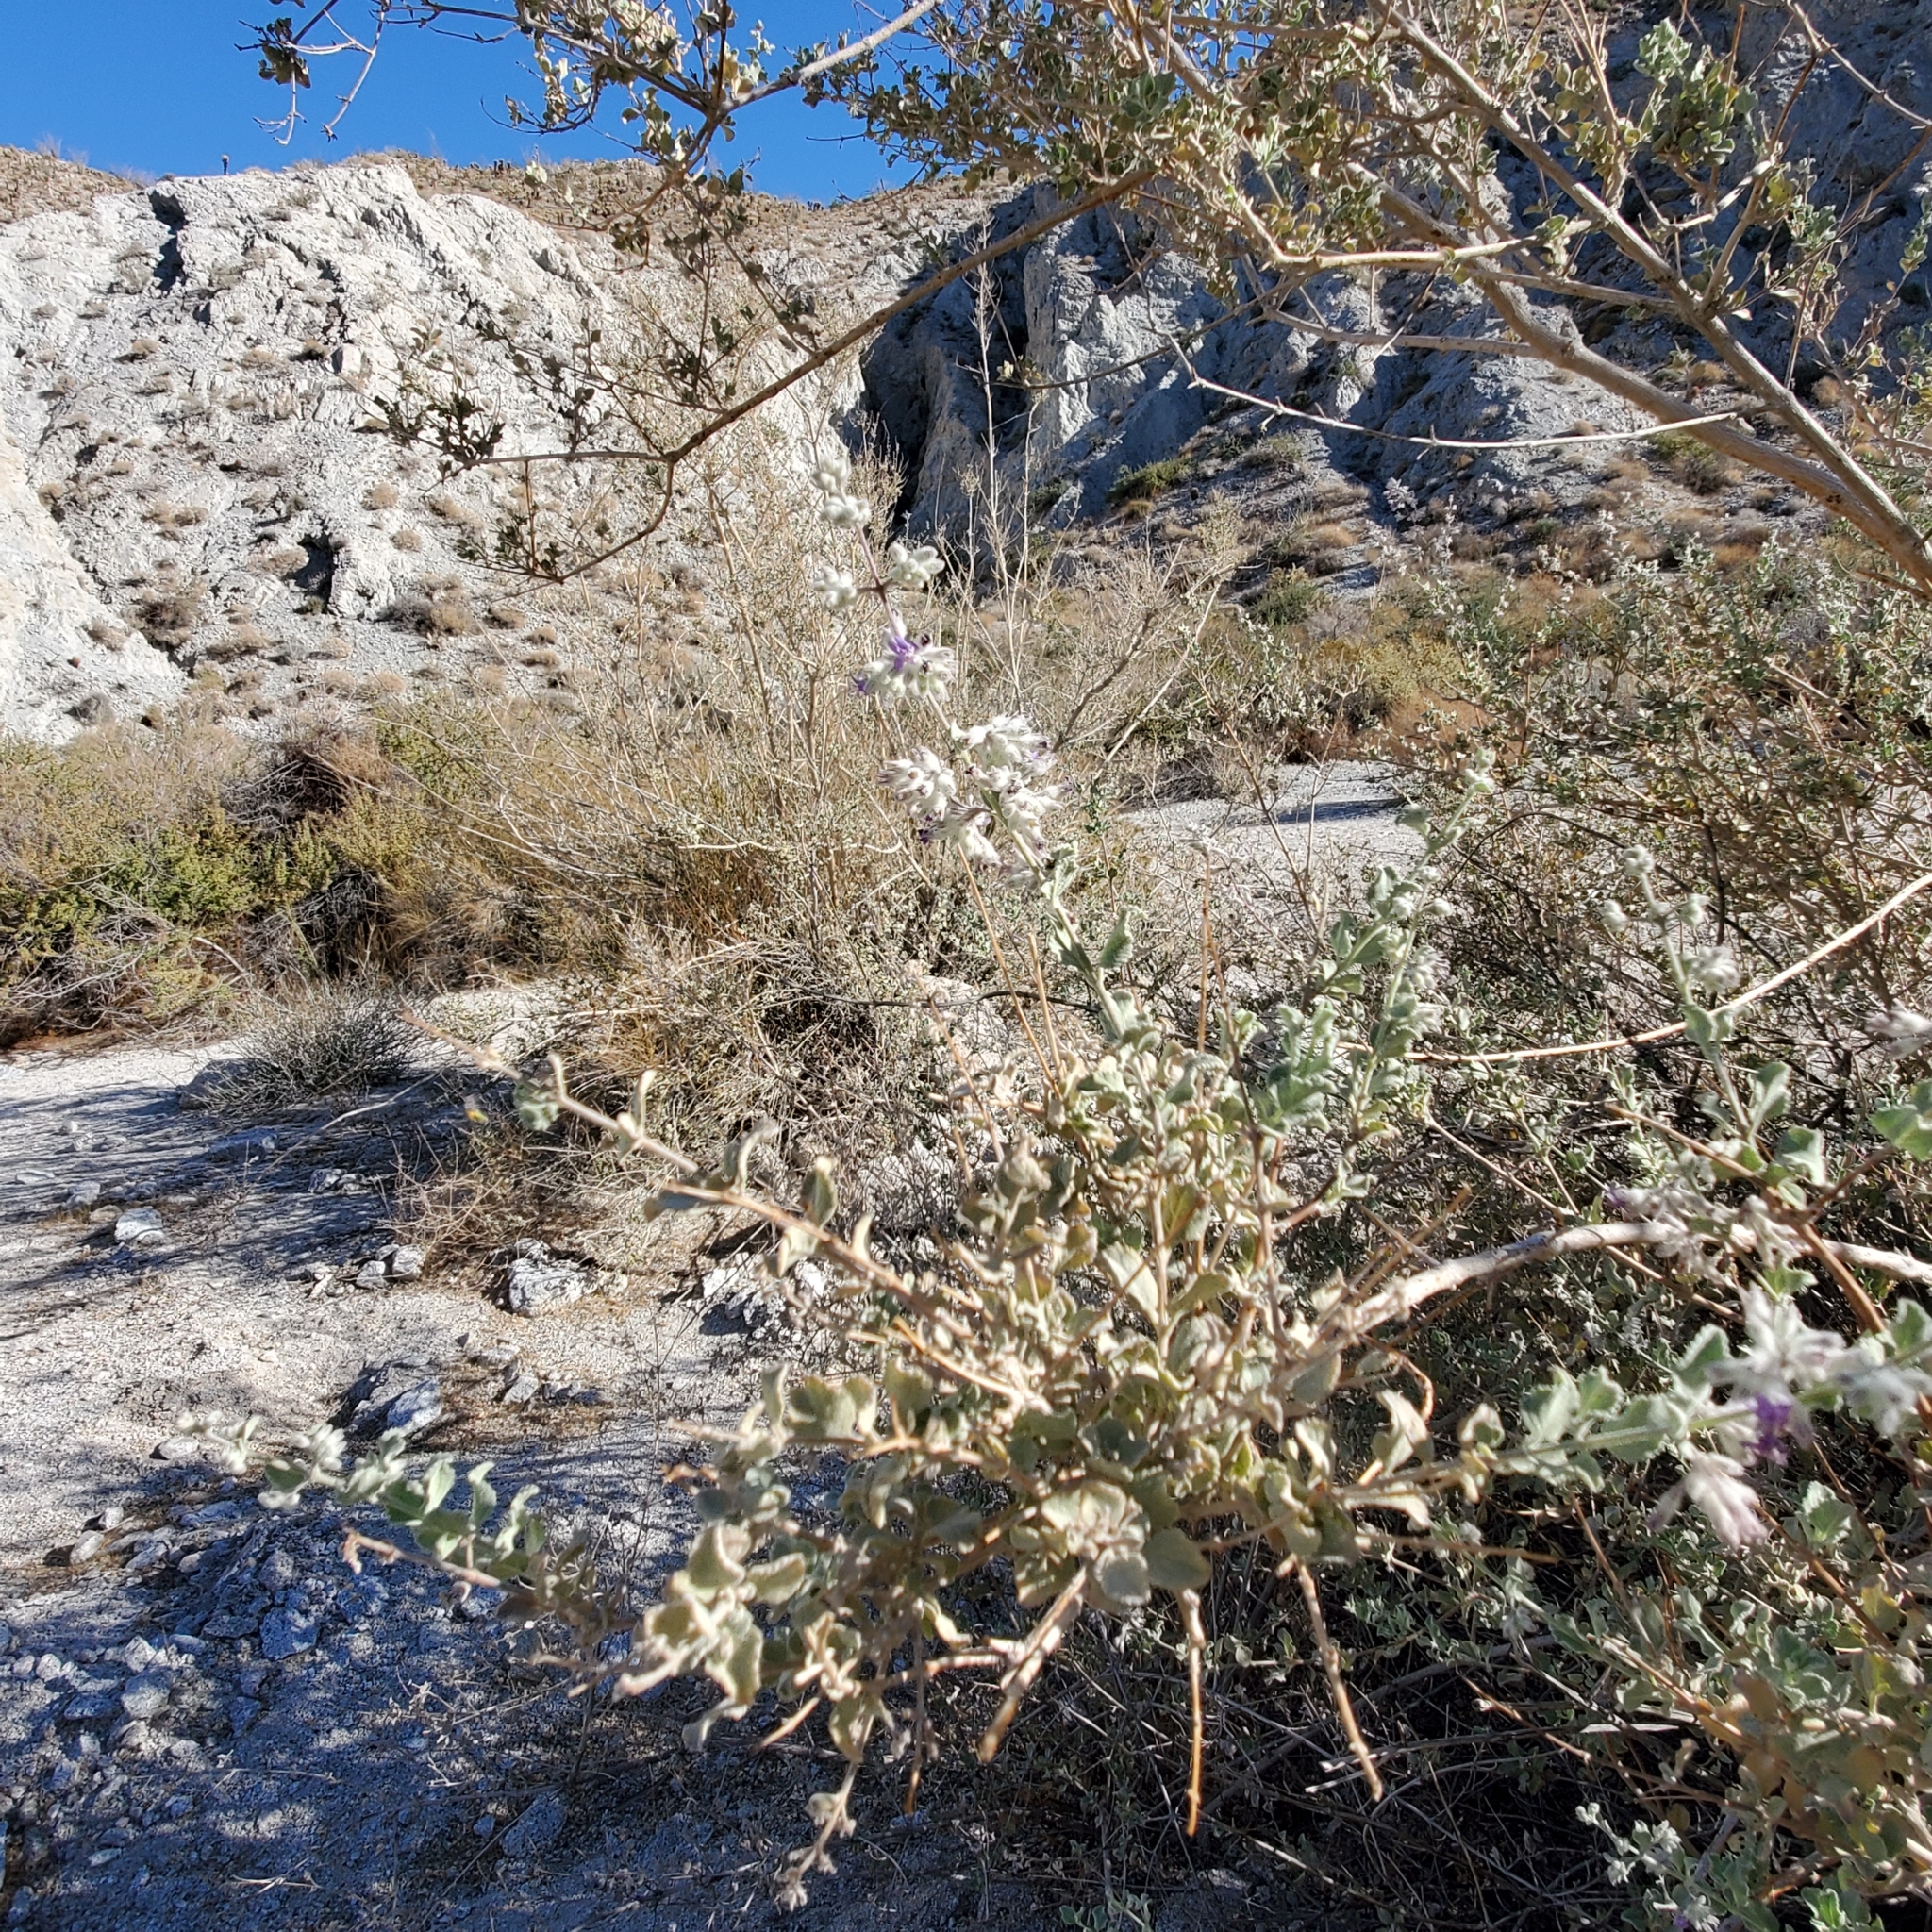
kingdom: Plantae
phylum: Tracheophyta
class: Magnoliopsida
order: Lamiales
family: Lamiaceae
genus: Condea
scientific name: Condea emoryi
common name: Chia
